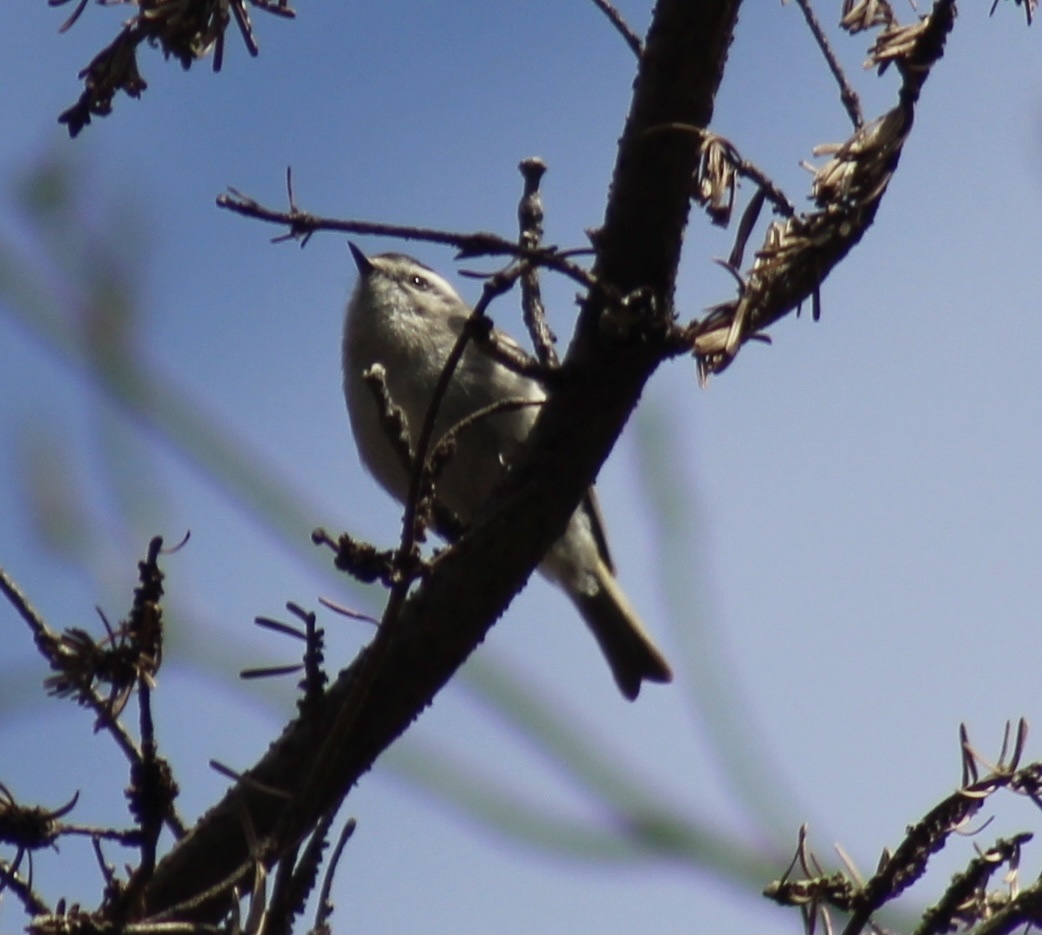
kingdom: Animalia
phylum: Chordata
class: Aves
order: Passeriformes
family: Regulidae
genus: Regulus
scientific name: Regulus satrapa
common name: Golden-crowned kinglet
